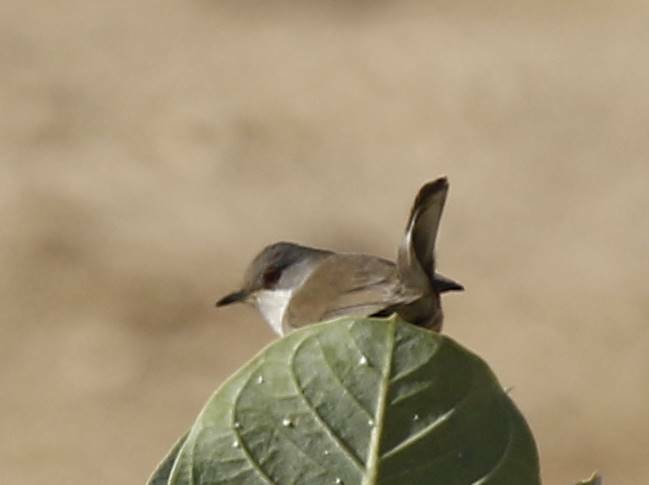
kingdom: Animalia
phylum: Chordata
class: Aves
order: Passeriformes
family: Sylviidae
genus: Sylvia
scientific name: Sylvia curruca
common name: Lesser whitethroat
